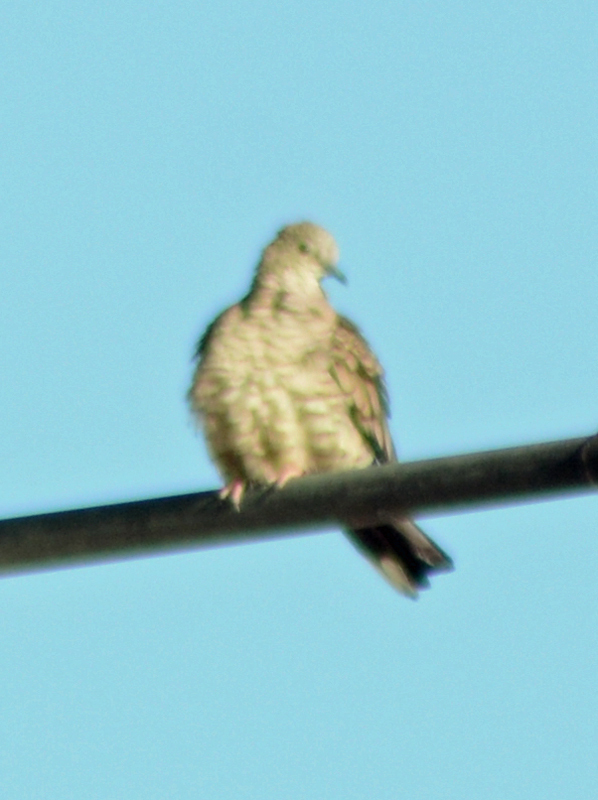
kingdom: Animalia
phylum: Chordata
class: Aves
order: Columbiformes
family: Columbidae
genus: Columbina
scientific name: Columbina inca
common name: Inca dove
